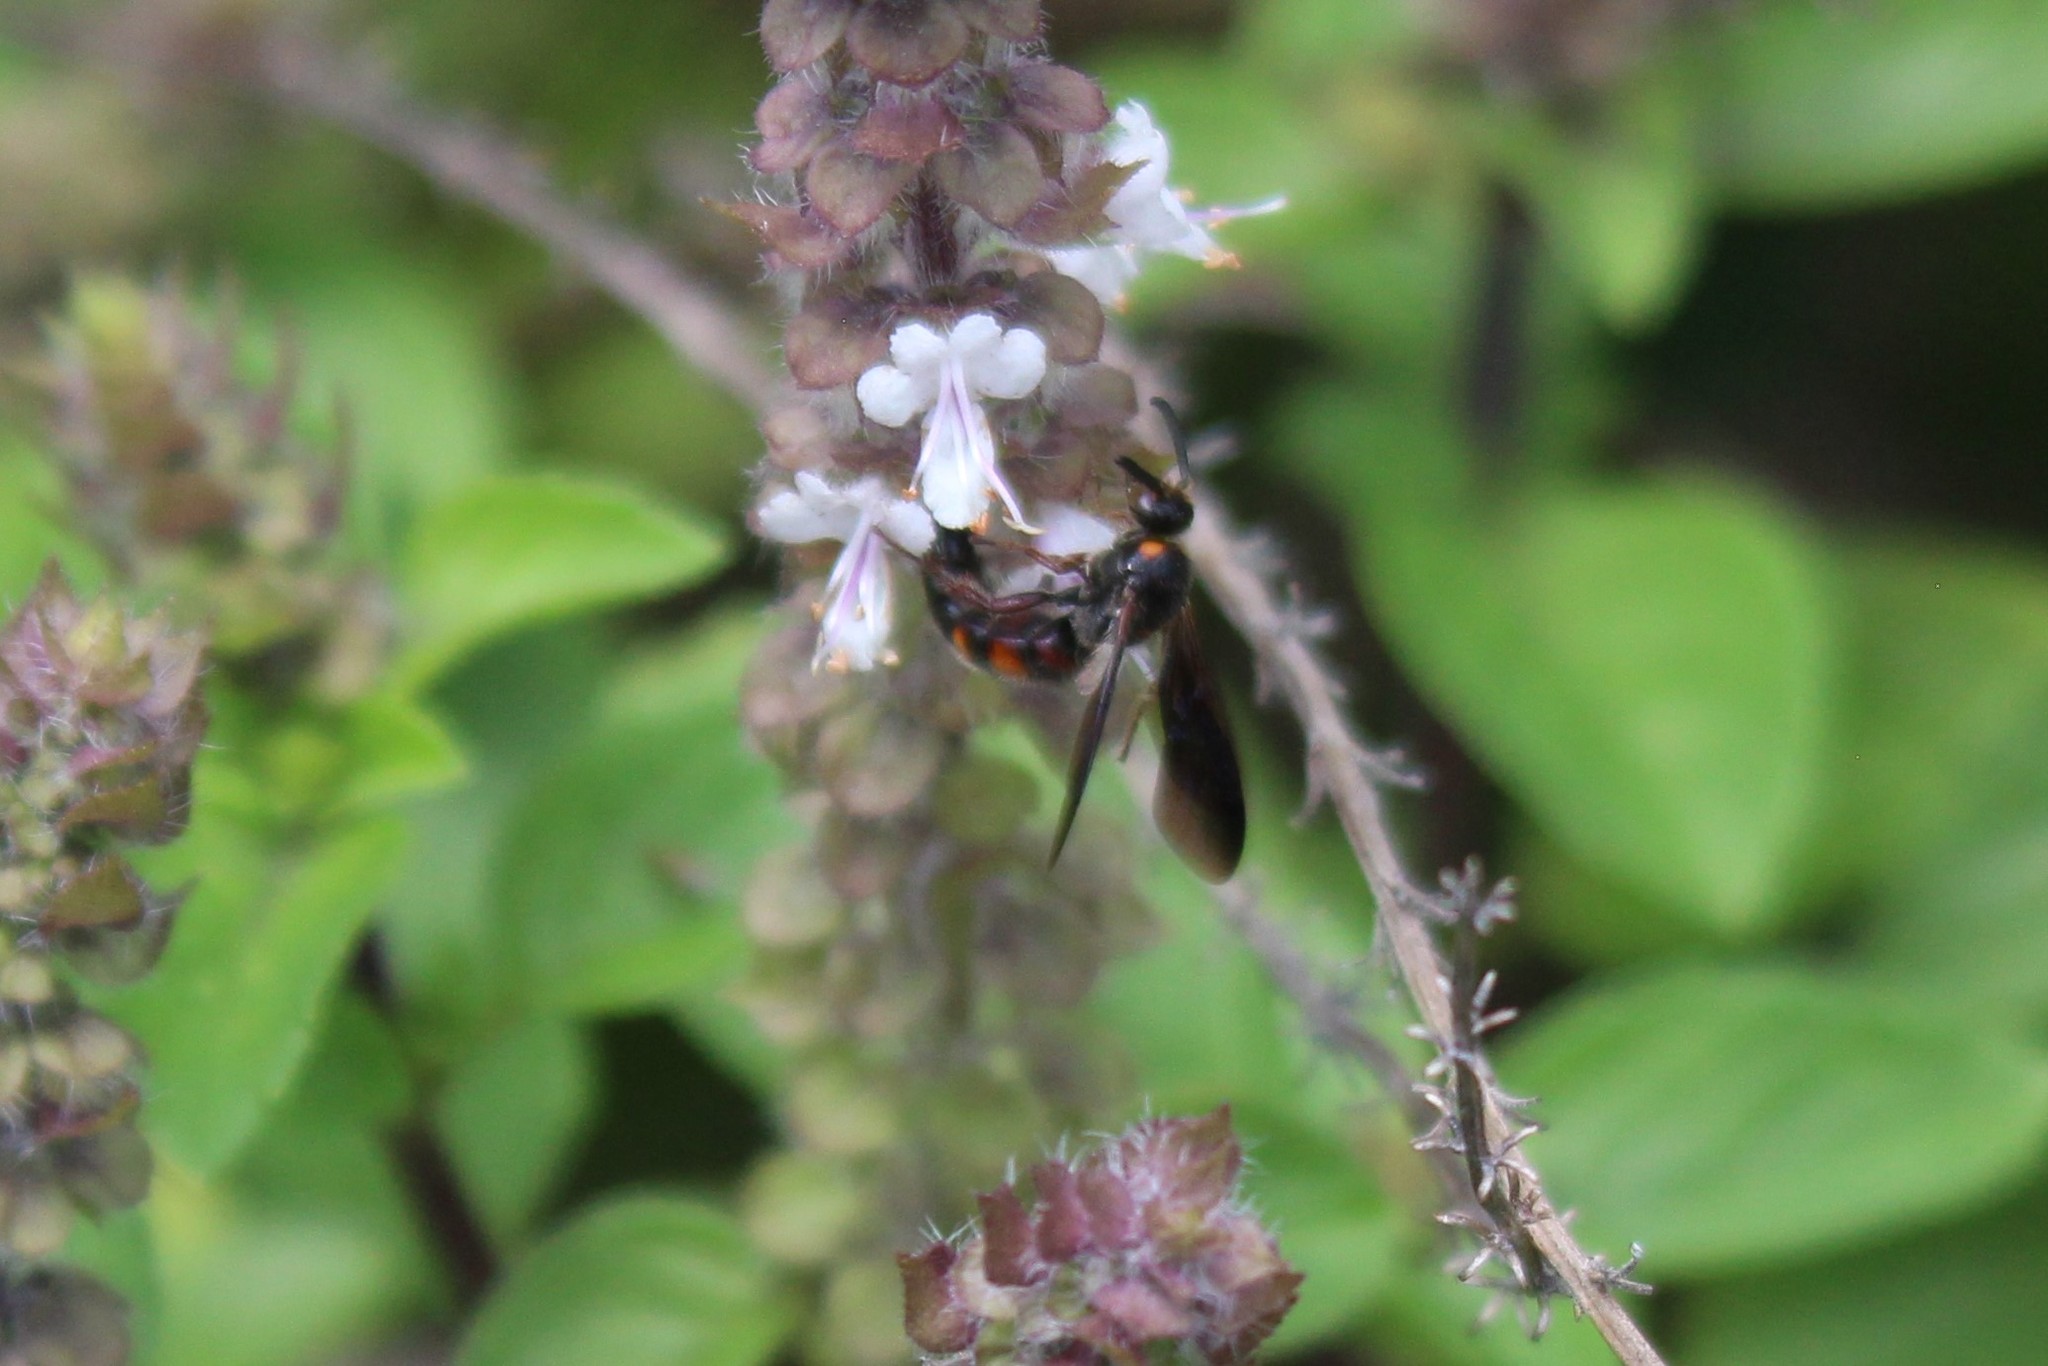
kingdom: Animalia
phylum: Arthropoda
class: Insecta
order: Hymenoptera
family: Scoliidae
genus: Scolia
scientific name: Scolia nobilitata
